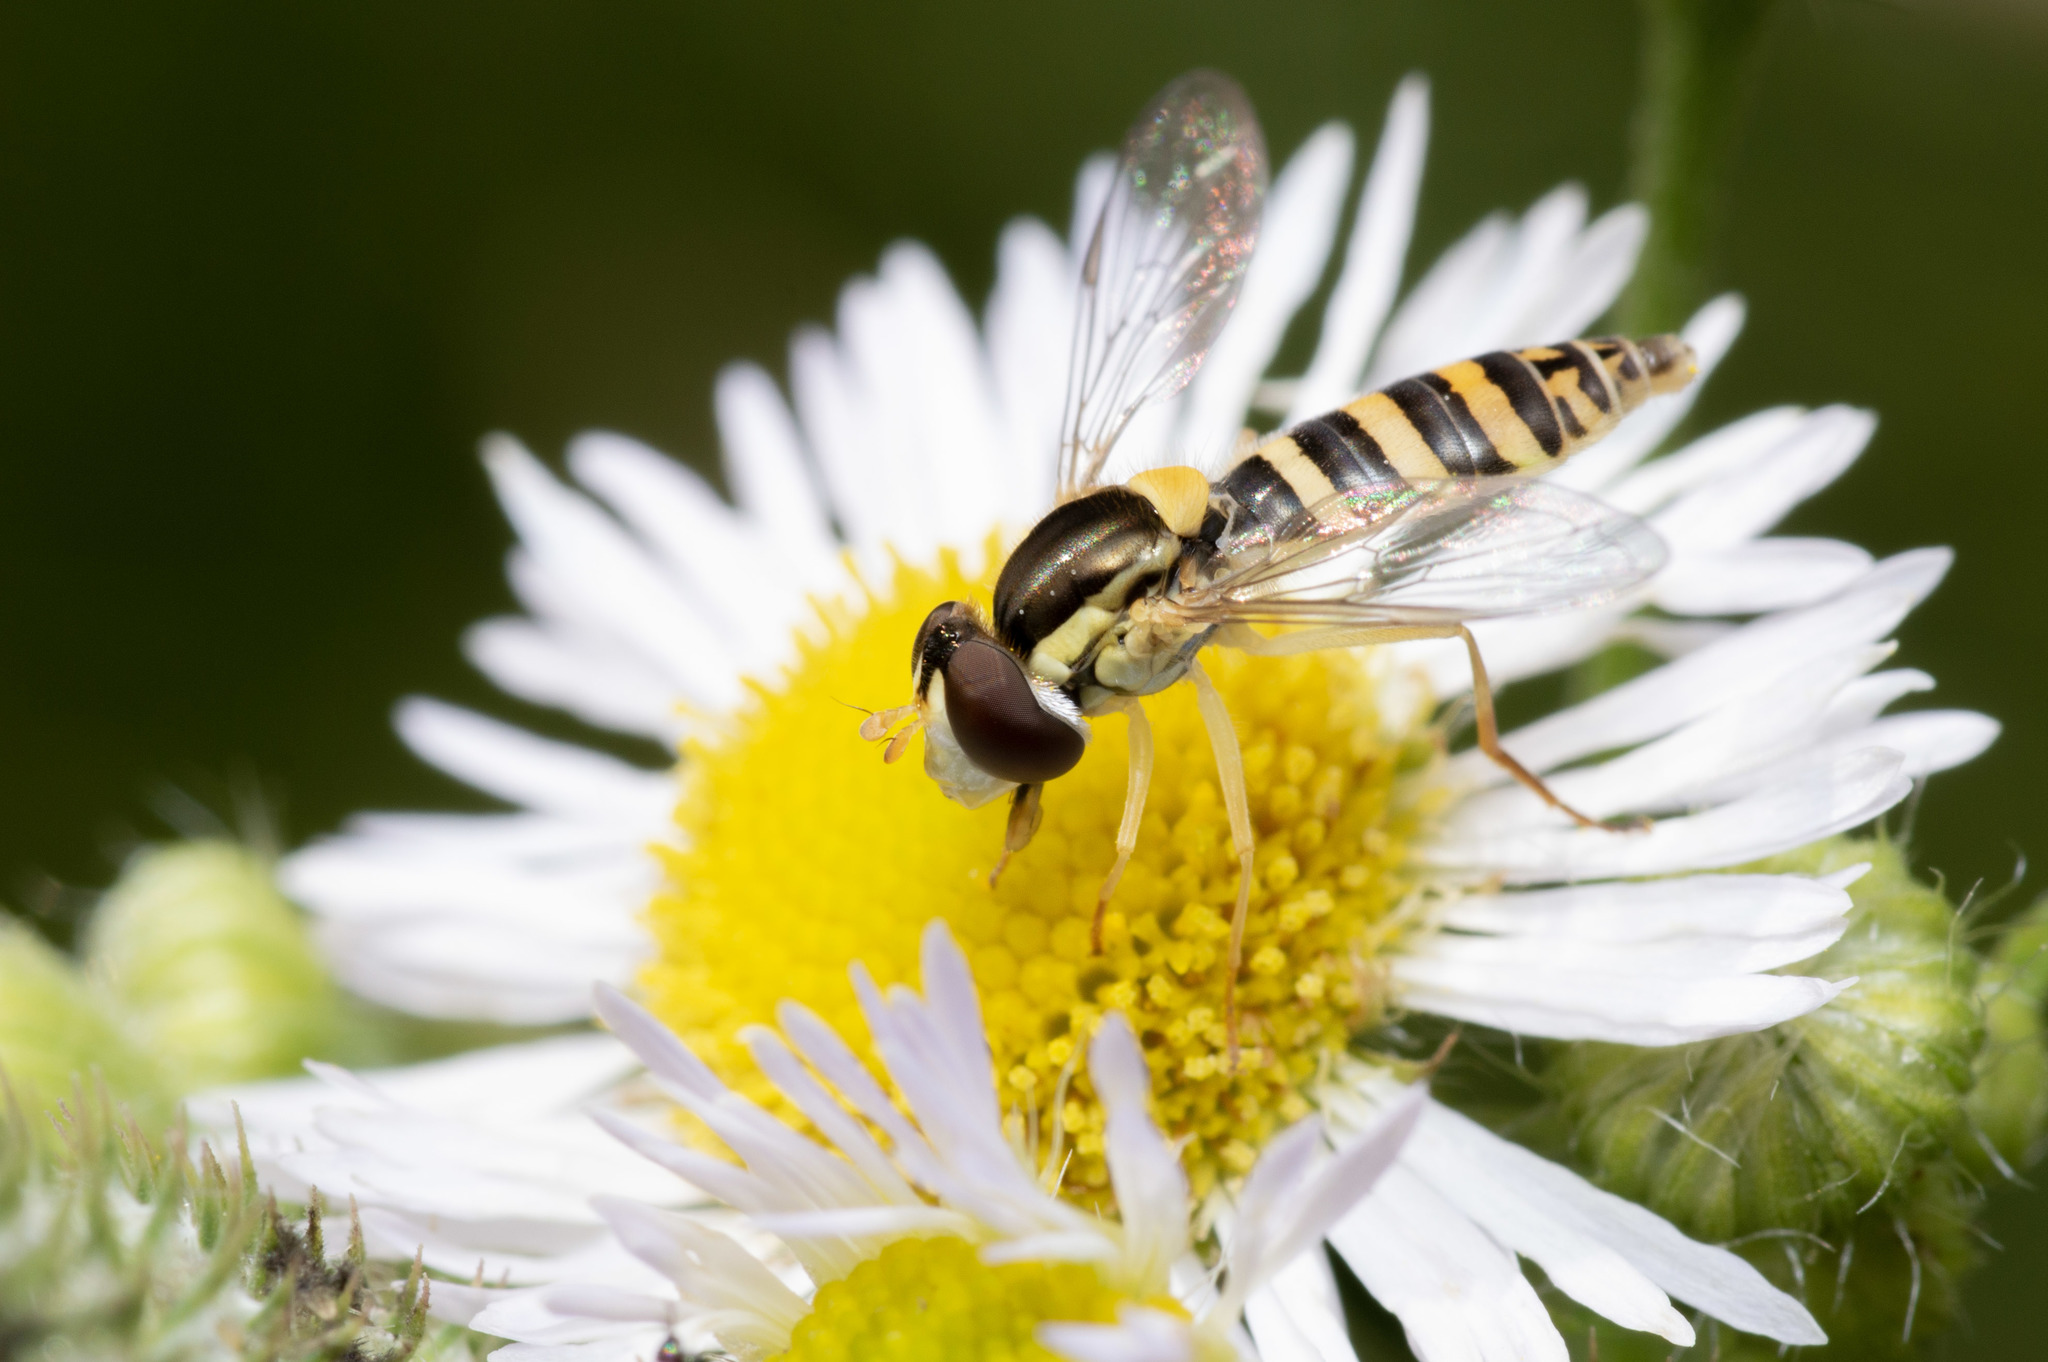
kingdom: Animalia
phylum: Arthropoda
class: Insecta
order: Diptera
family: Syrphidae
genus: Sphaerophoria
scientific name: Sphaerophoria
